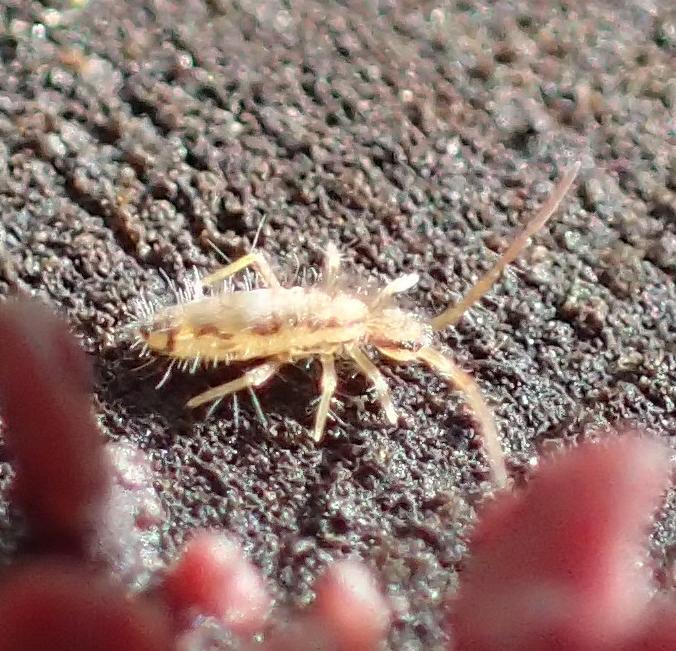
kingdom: Animalia
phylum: Arthropoda
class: Collembola
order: Entomobryomorpha
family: Entomobryidae
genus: Entomobrya
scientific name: Entomobrya muscorum
